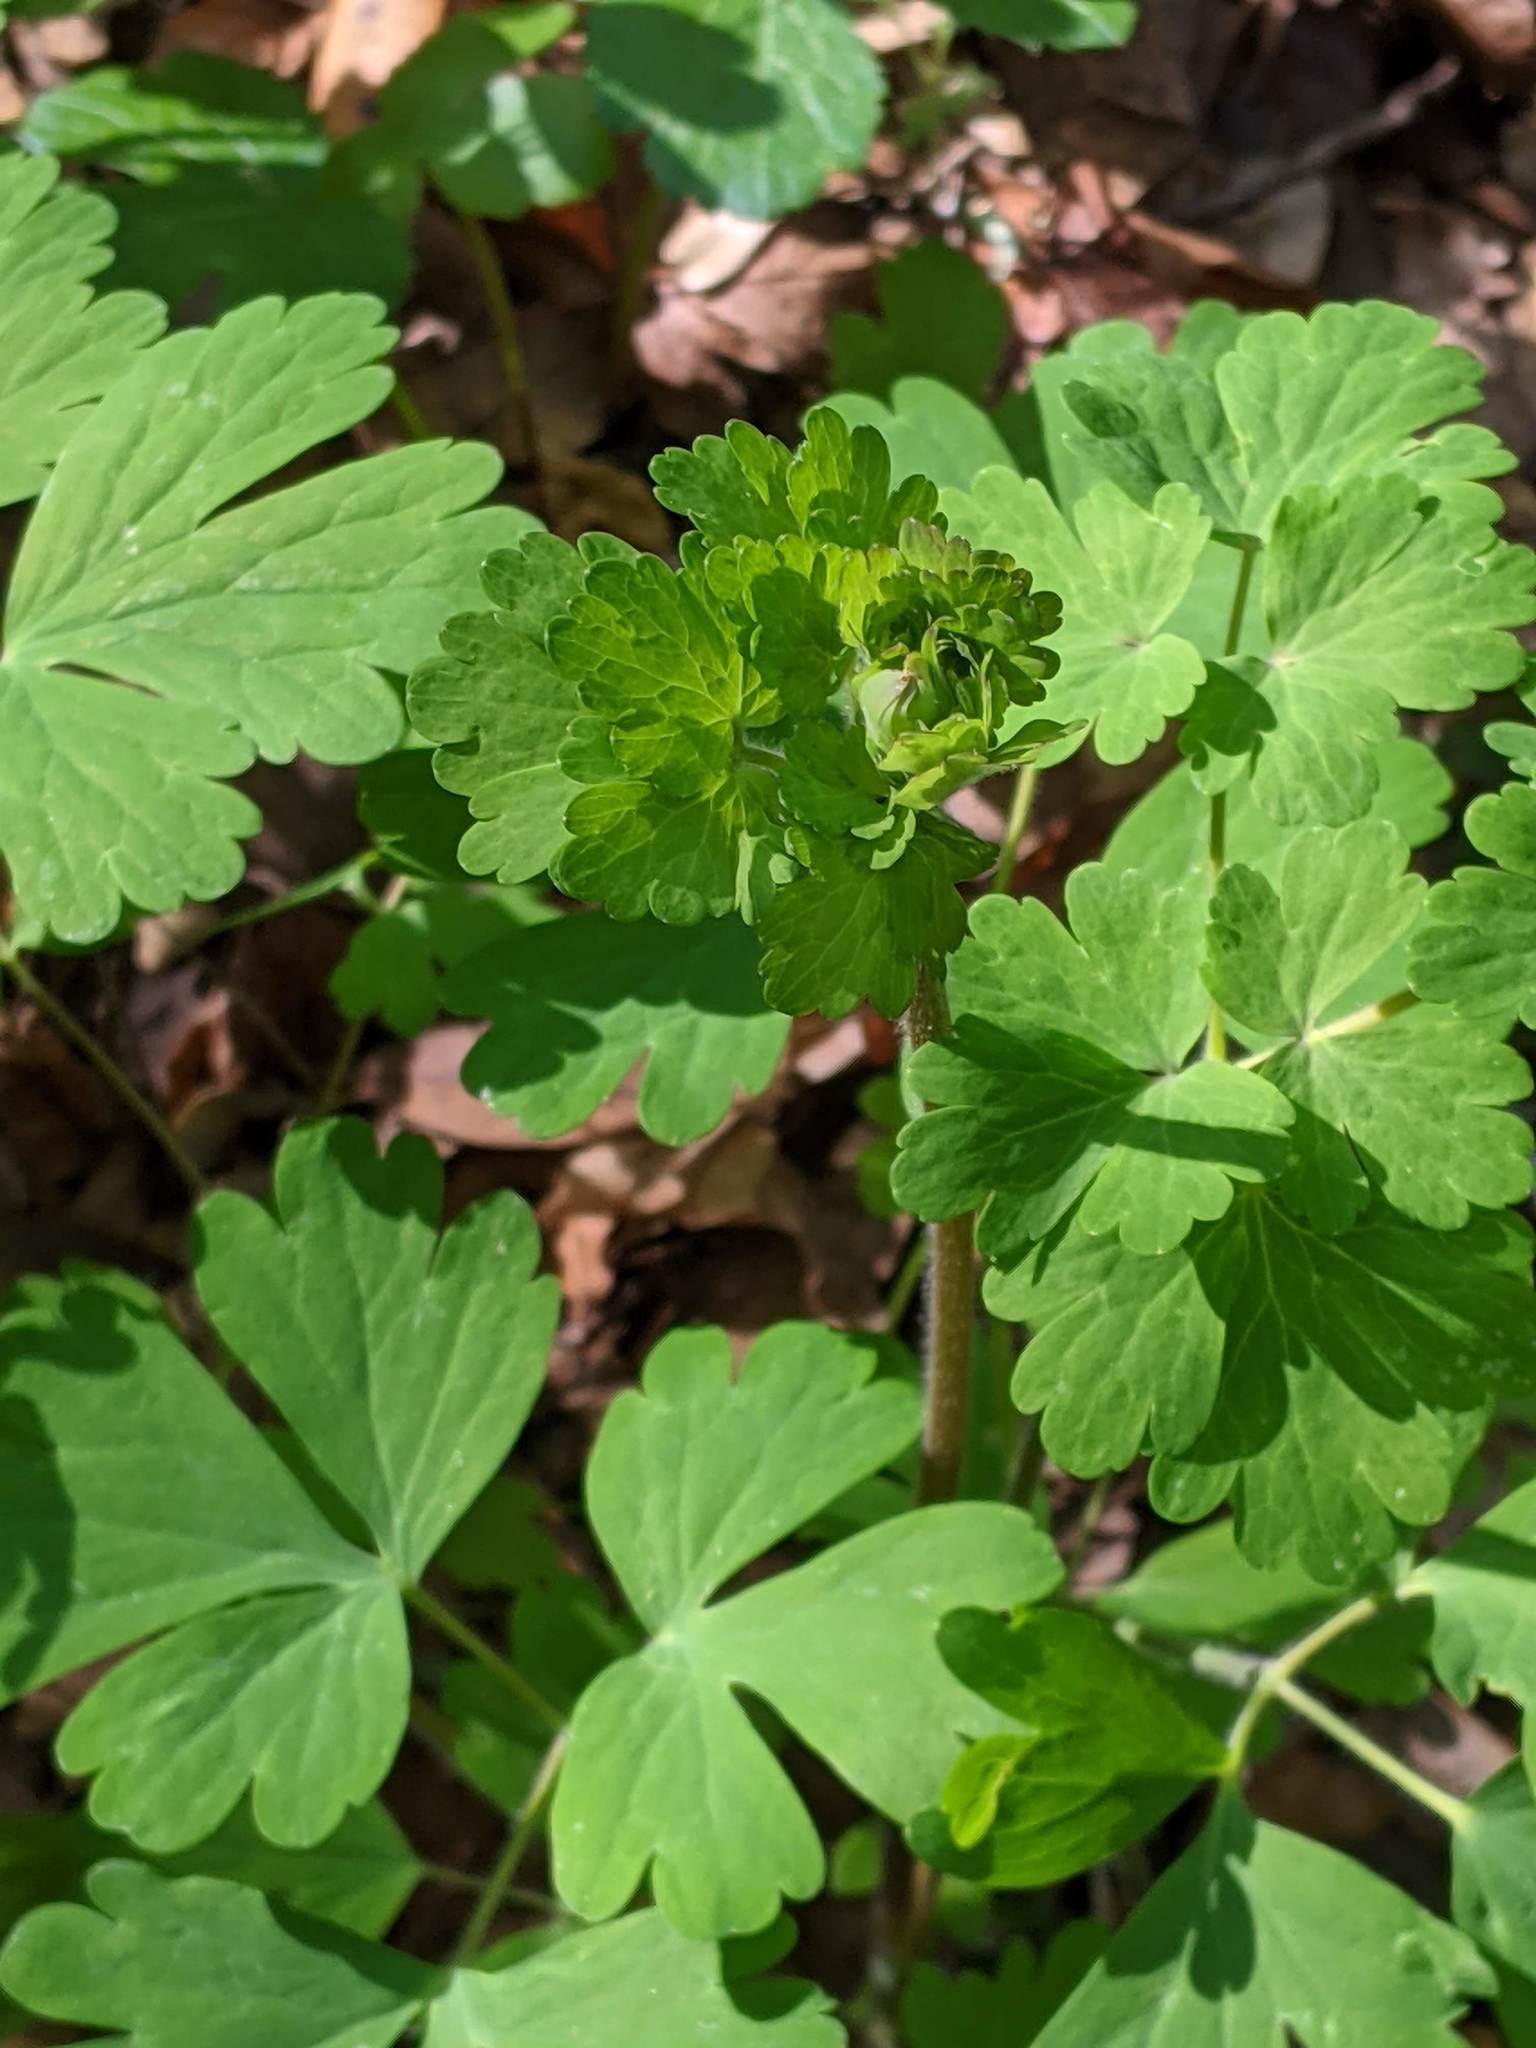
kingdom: Plantae
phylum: Tracheophyta
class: Magnoliopsida
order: Ranunculales
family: Ranunculaceae
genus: Aquilegia
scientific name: Aquilegia formosa
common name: Sitka columbine
